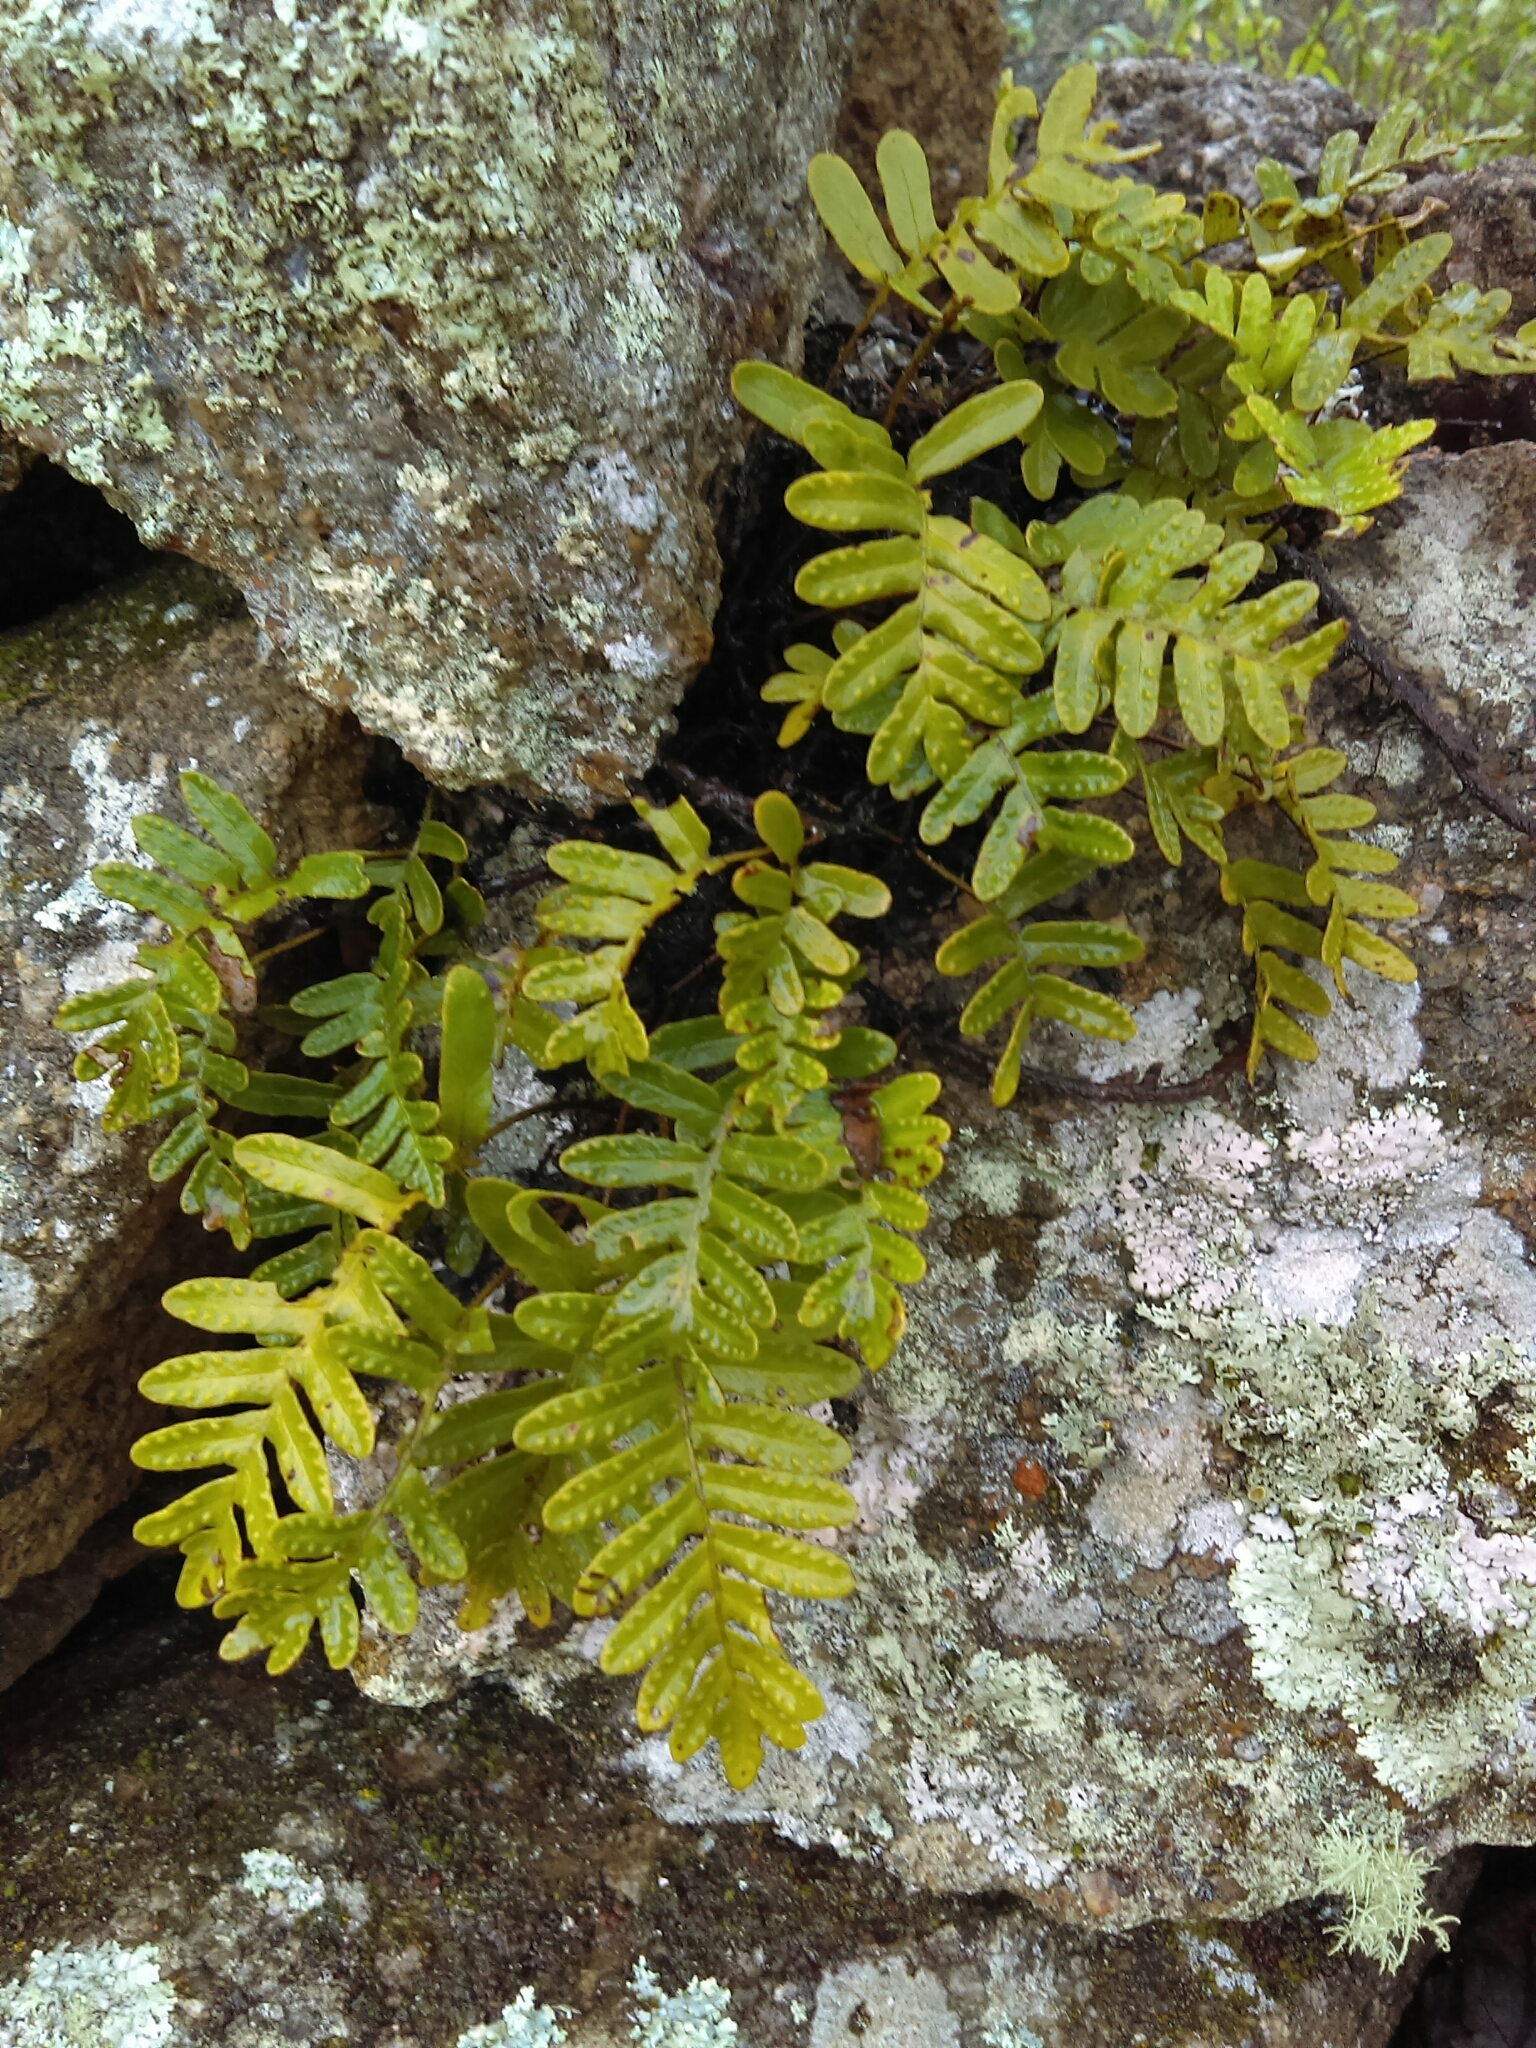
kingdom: Plantae
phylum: Tracheophyta
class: Polypodiopsida
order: Polypodiales
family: Polypodiaceae
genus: Pleopeltis
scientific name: Pleopeltis guttata
